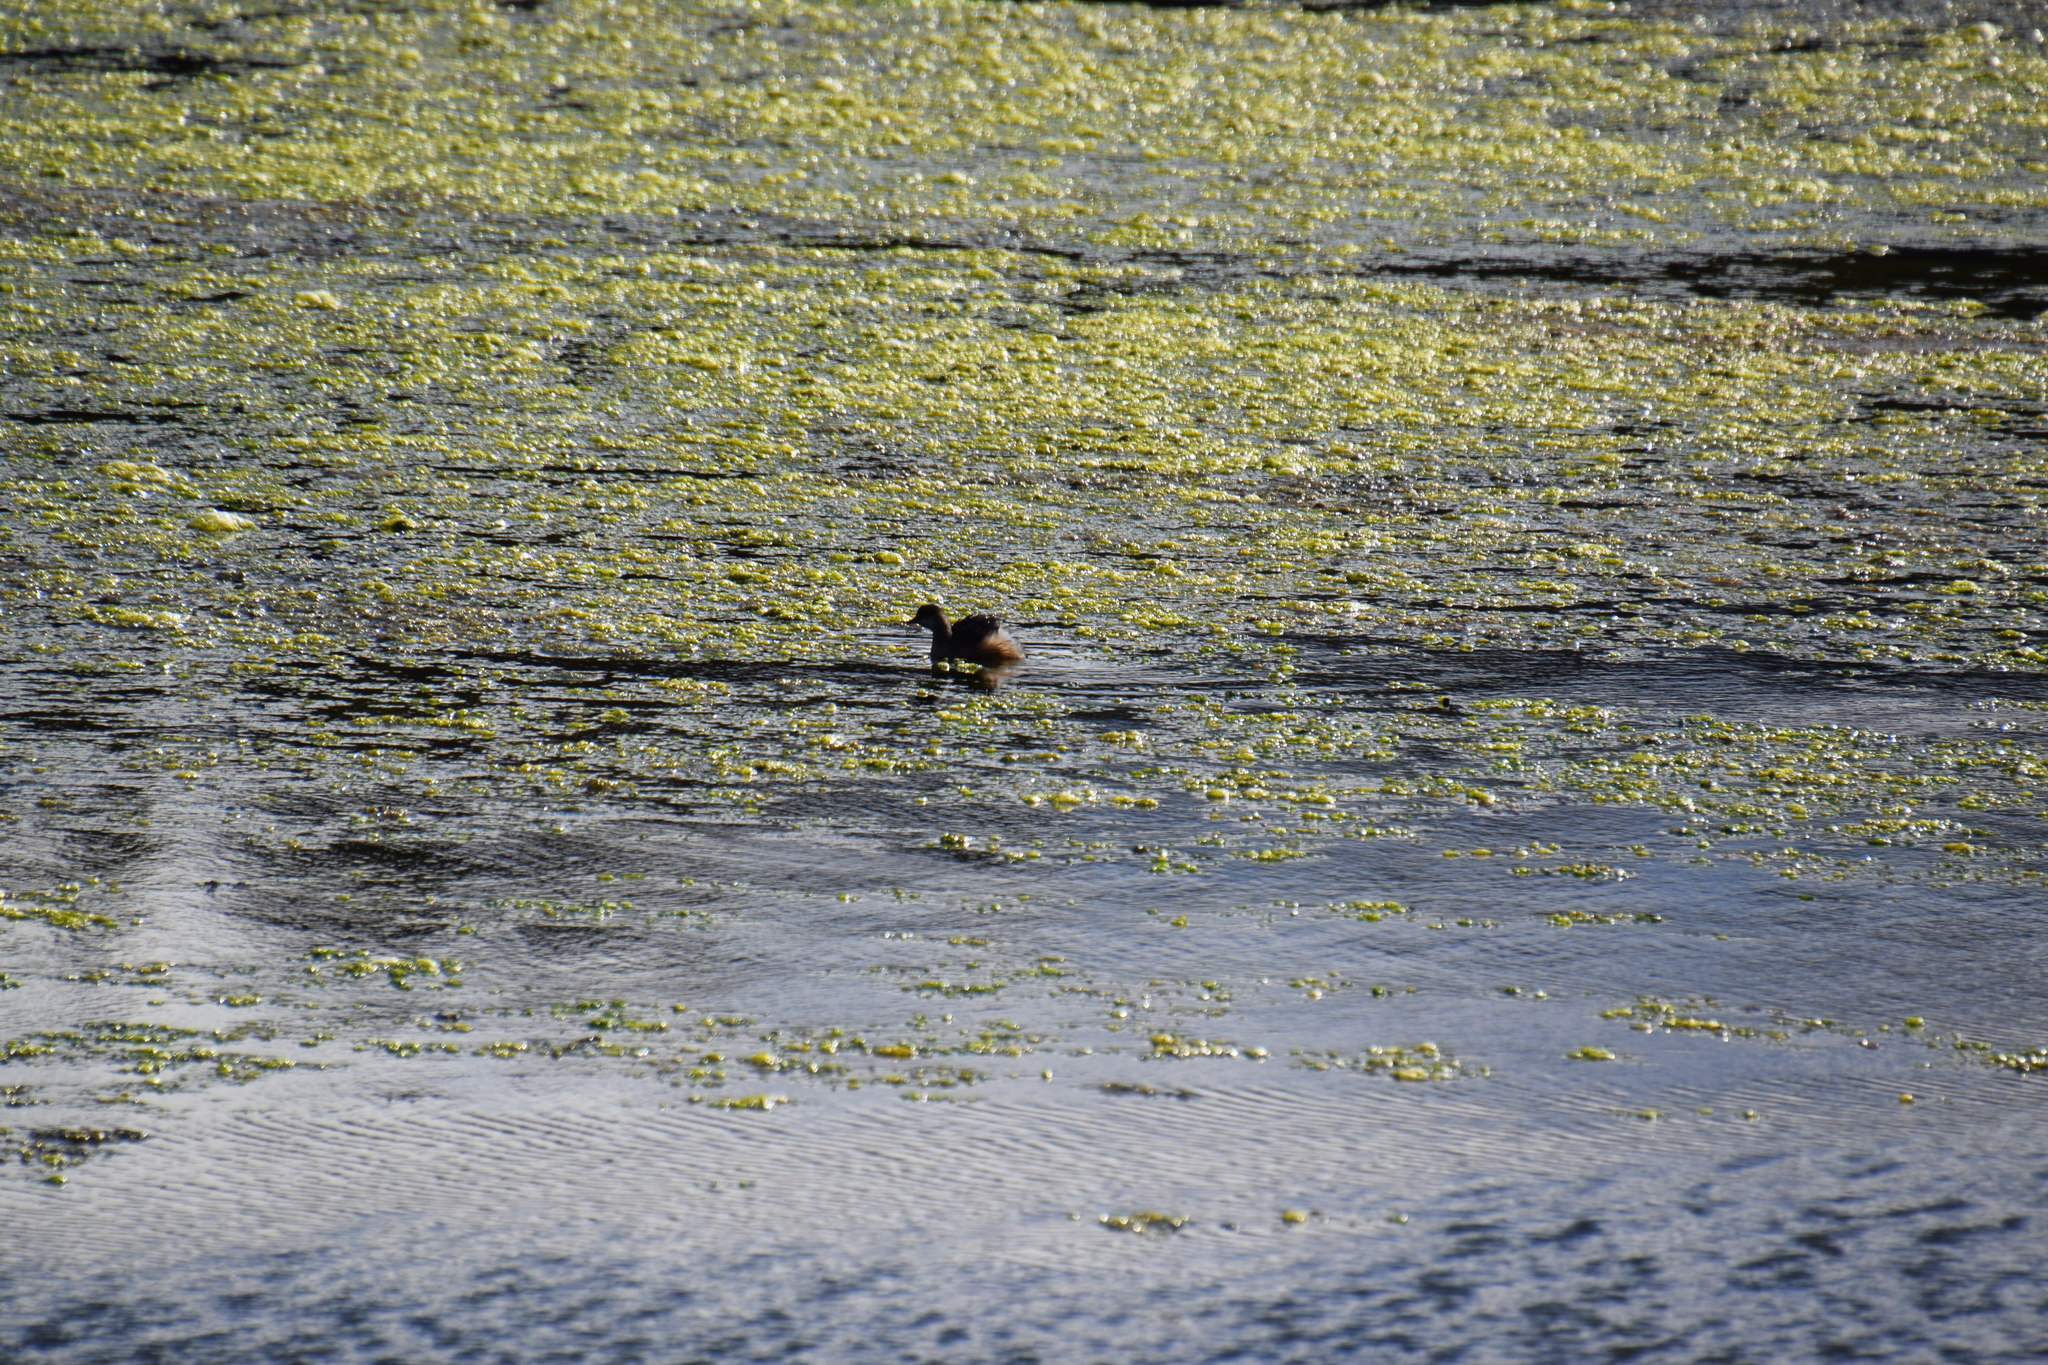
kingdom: Animalia
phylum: Chordata
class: Aves
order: Podicipediformes
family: Podicipedidae
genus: Tachybaptus
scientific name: Tachybaptus novaehollandiae
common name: Australasian grebe
